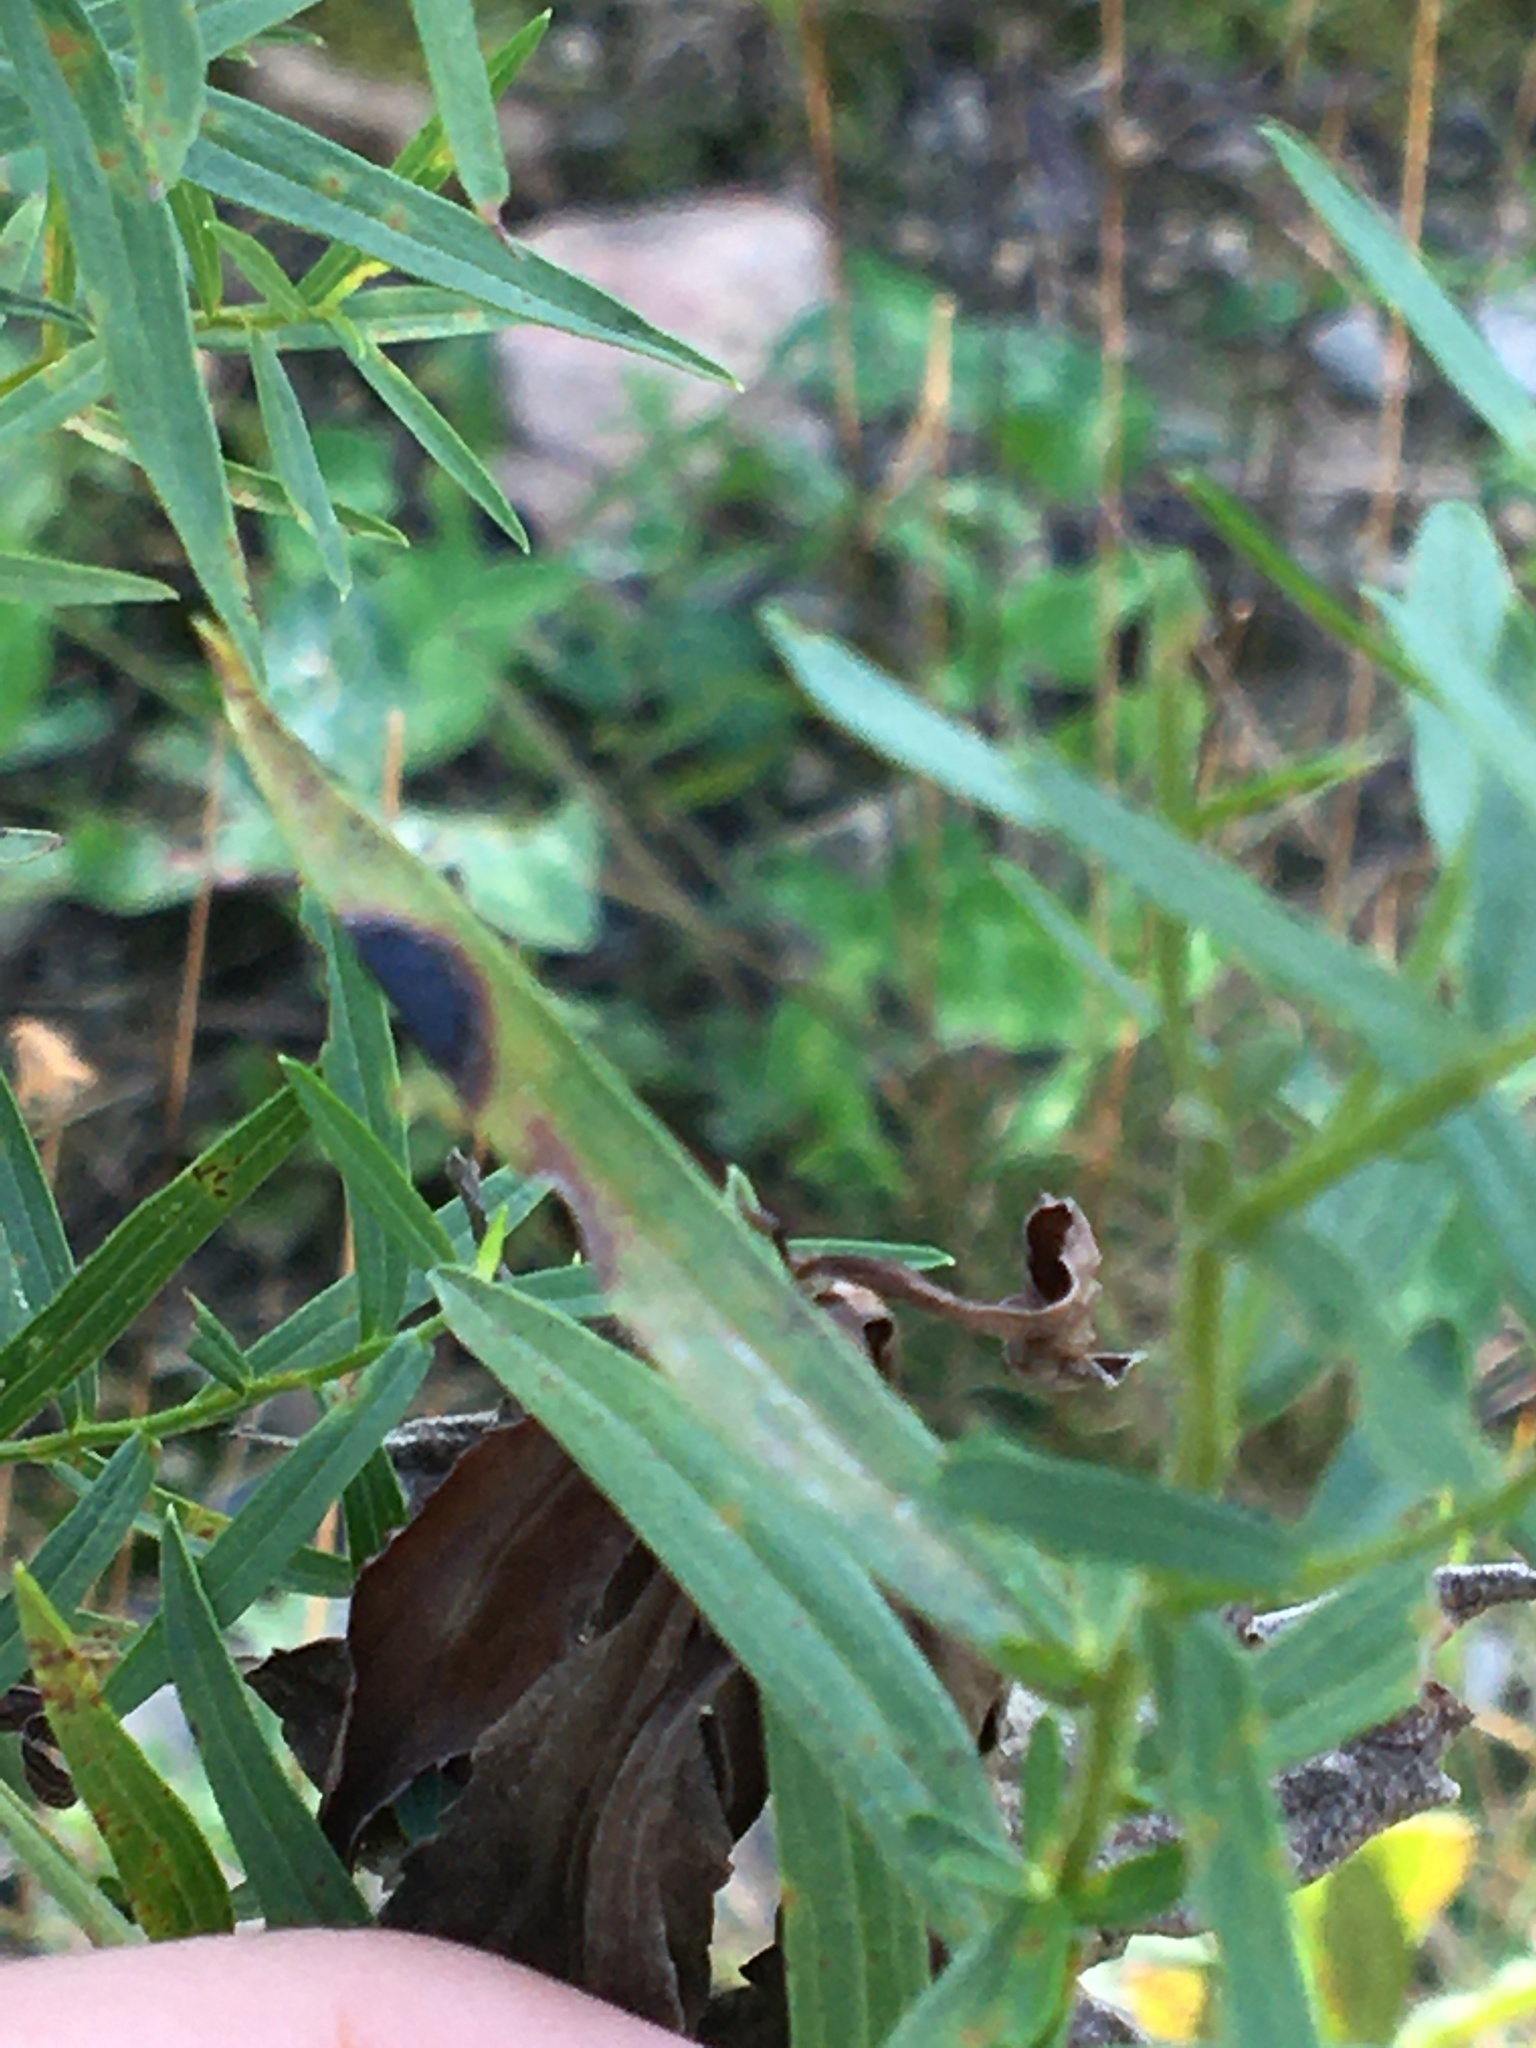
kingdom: Animalia
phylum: Arthropoda
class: Insecta
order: Diptera
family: Cecidomyiidae
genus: Asteromyia
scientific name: Asteromyia euthamiae
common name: Euthamia leaf gall midge
